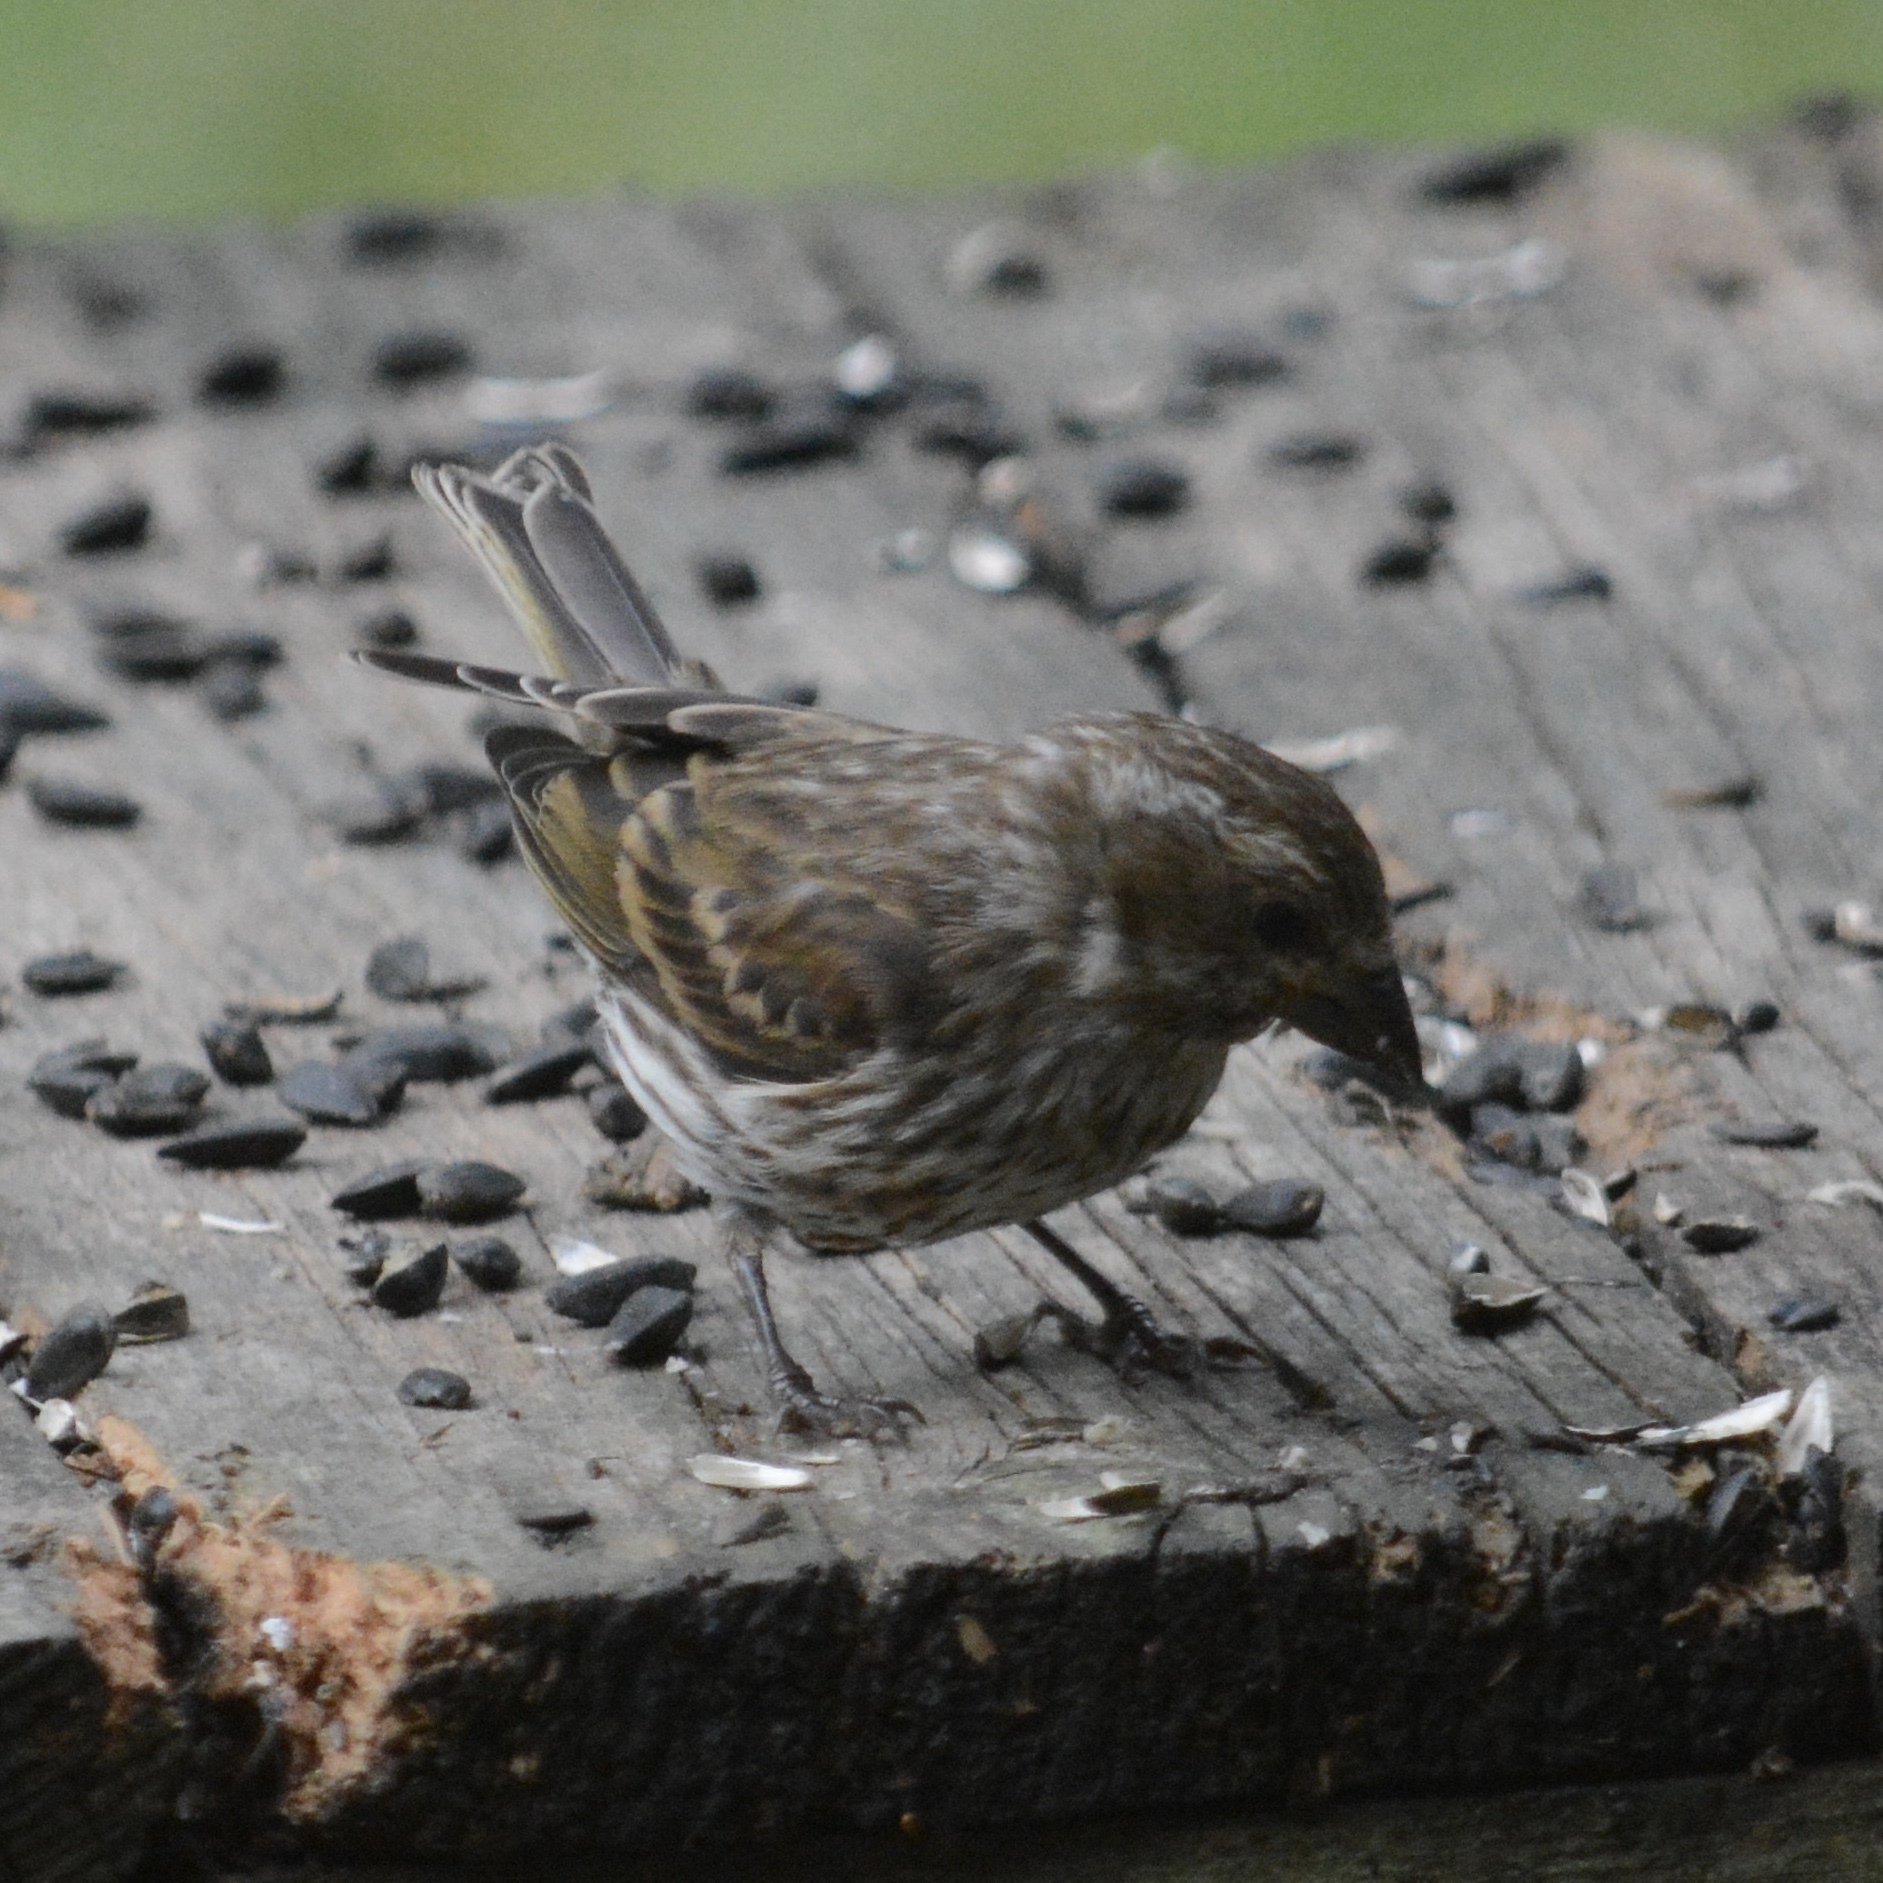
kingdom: Animalia
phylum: Chordata
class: Aves
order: Passeriformes
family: Fringillidae
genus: Haemorhous
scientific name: Haemorhous purpureus
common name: Purple finch
